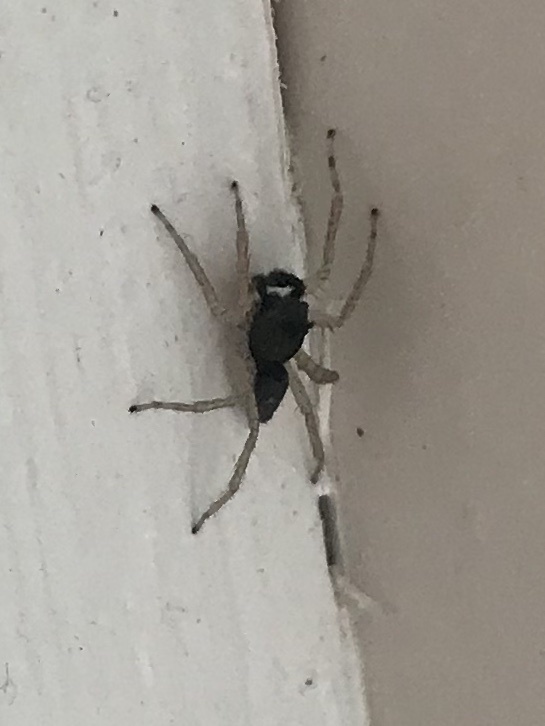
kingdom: Animalia
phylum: Arthropoda
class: Arachnida
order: Araneae
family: Salticidae
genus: Maevia
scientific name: Maevia inclemens
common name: Dimorphic jumper
